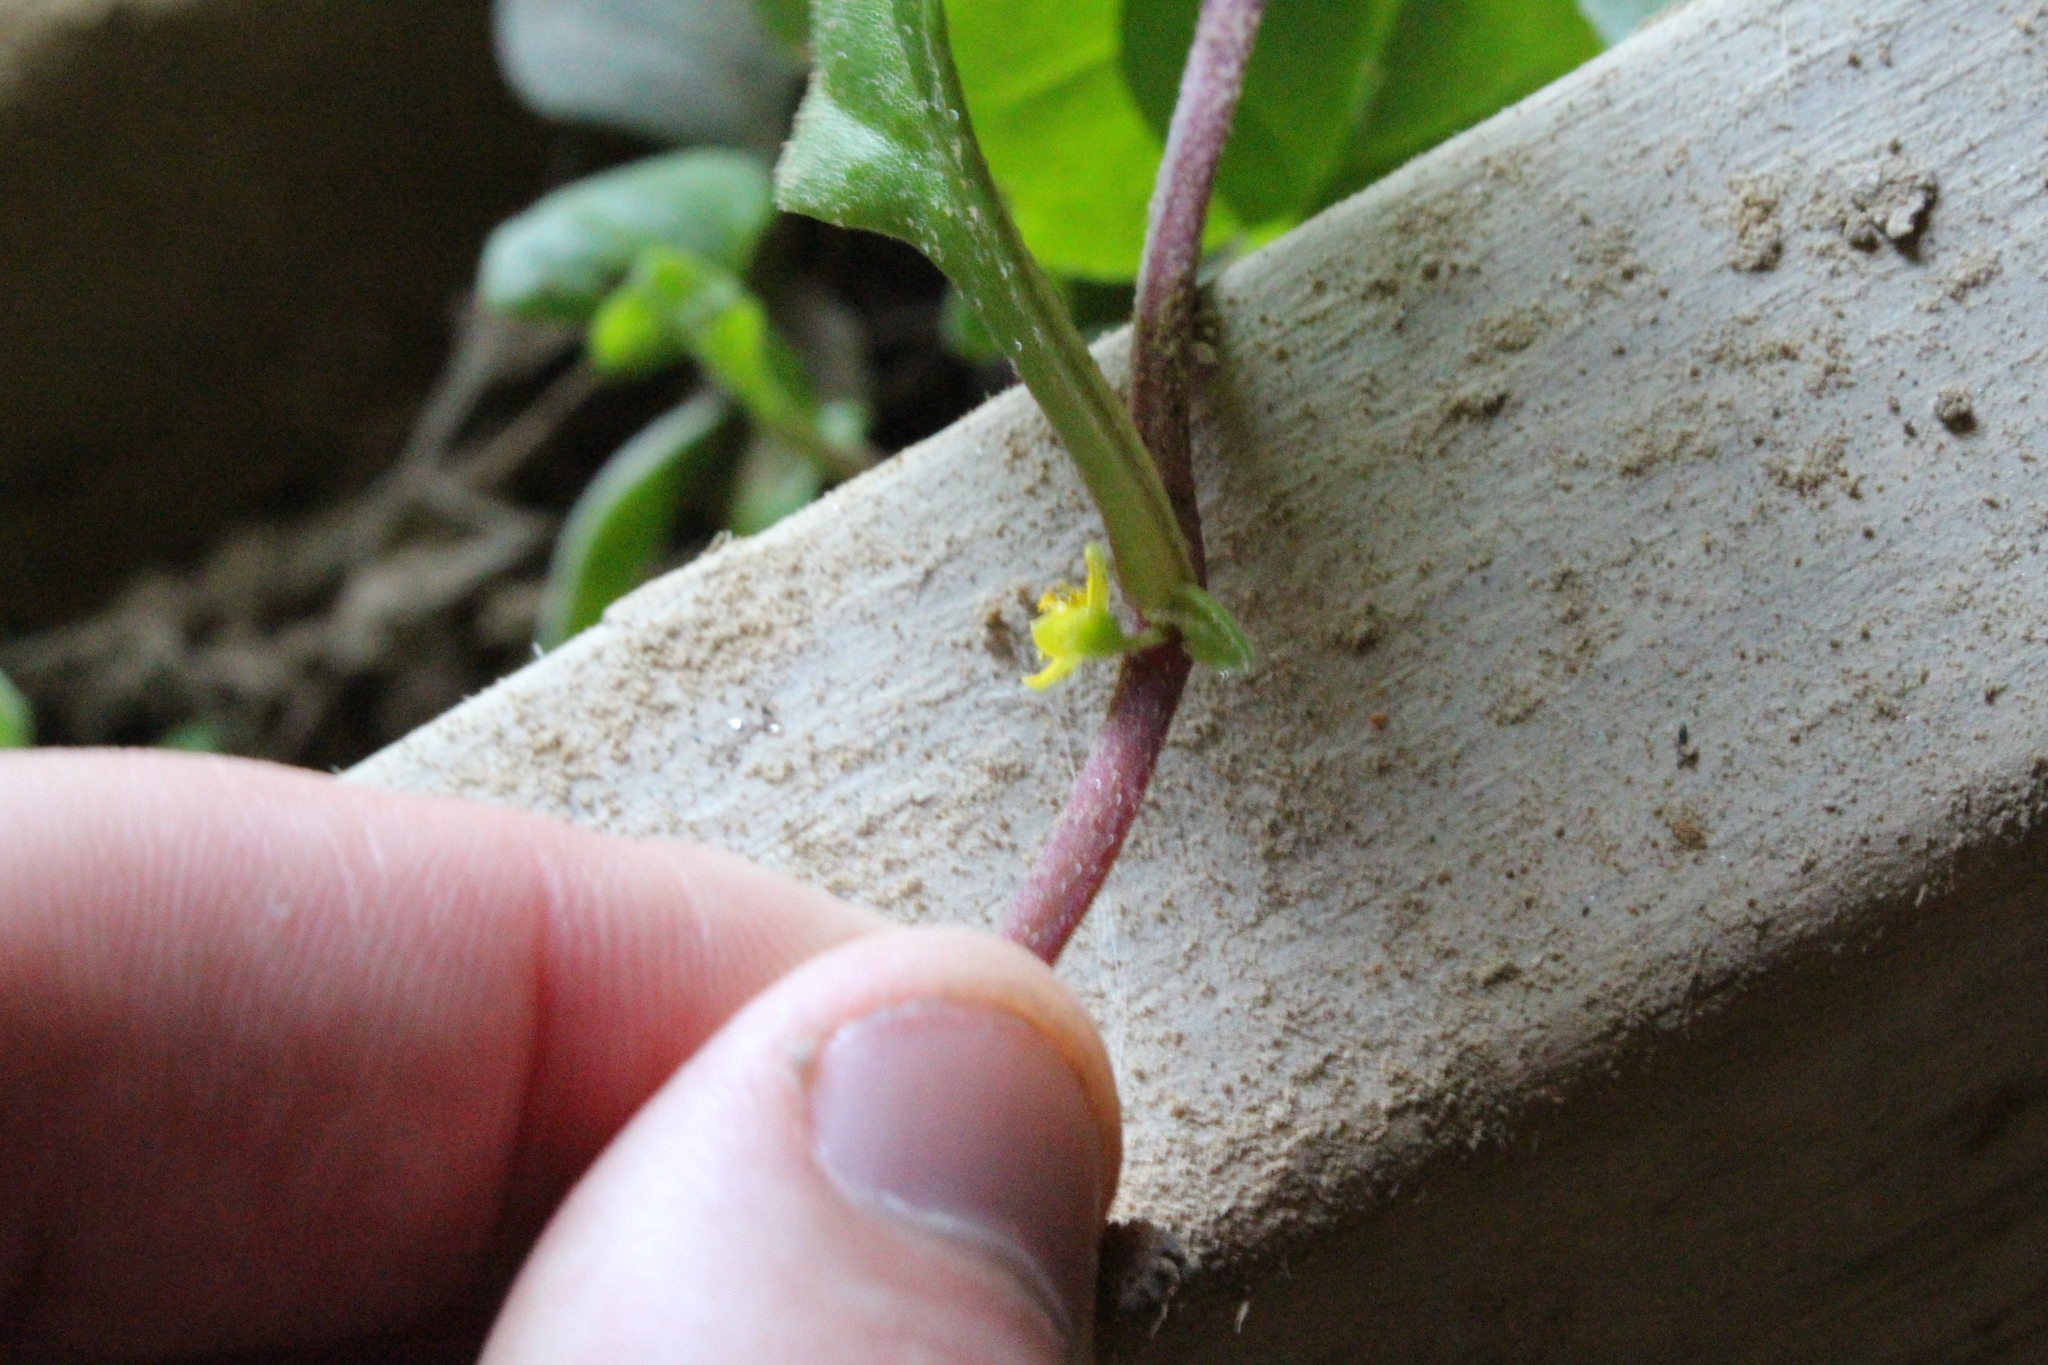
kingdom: Plantae
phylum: Tracheophyta
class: Magnoliopsida
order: Caryophyllales
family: Aizoaceae
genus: Tetragonia
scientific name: Tetragonia implexicoma
